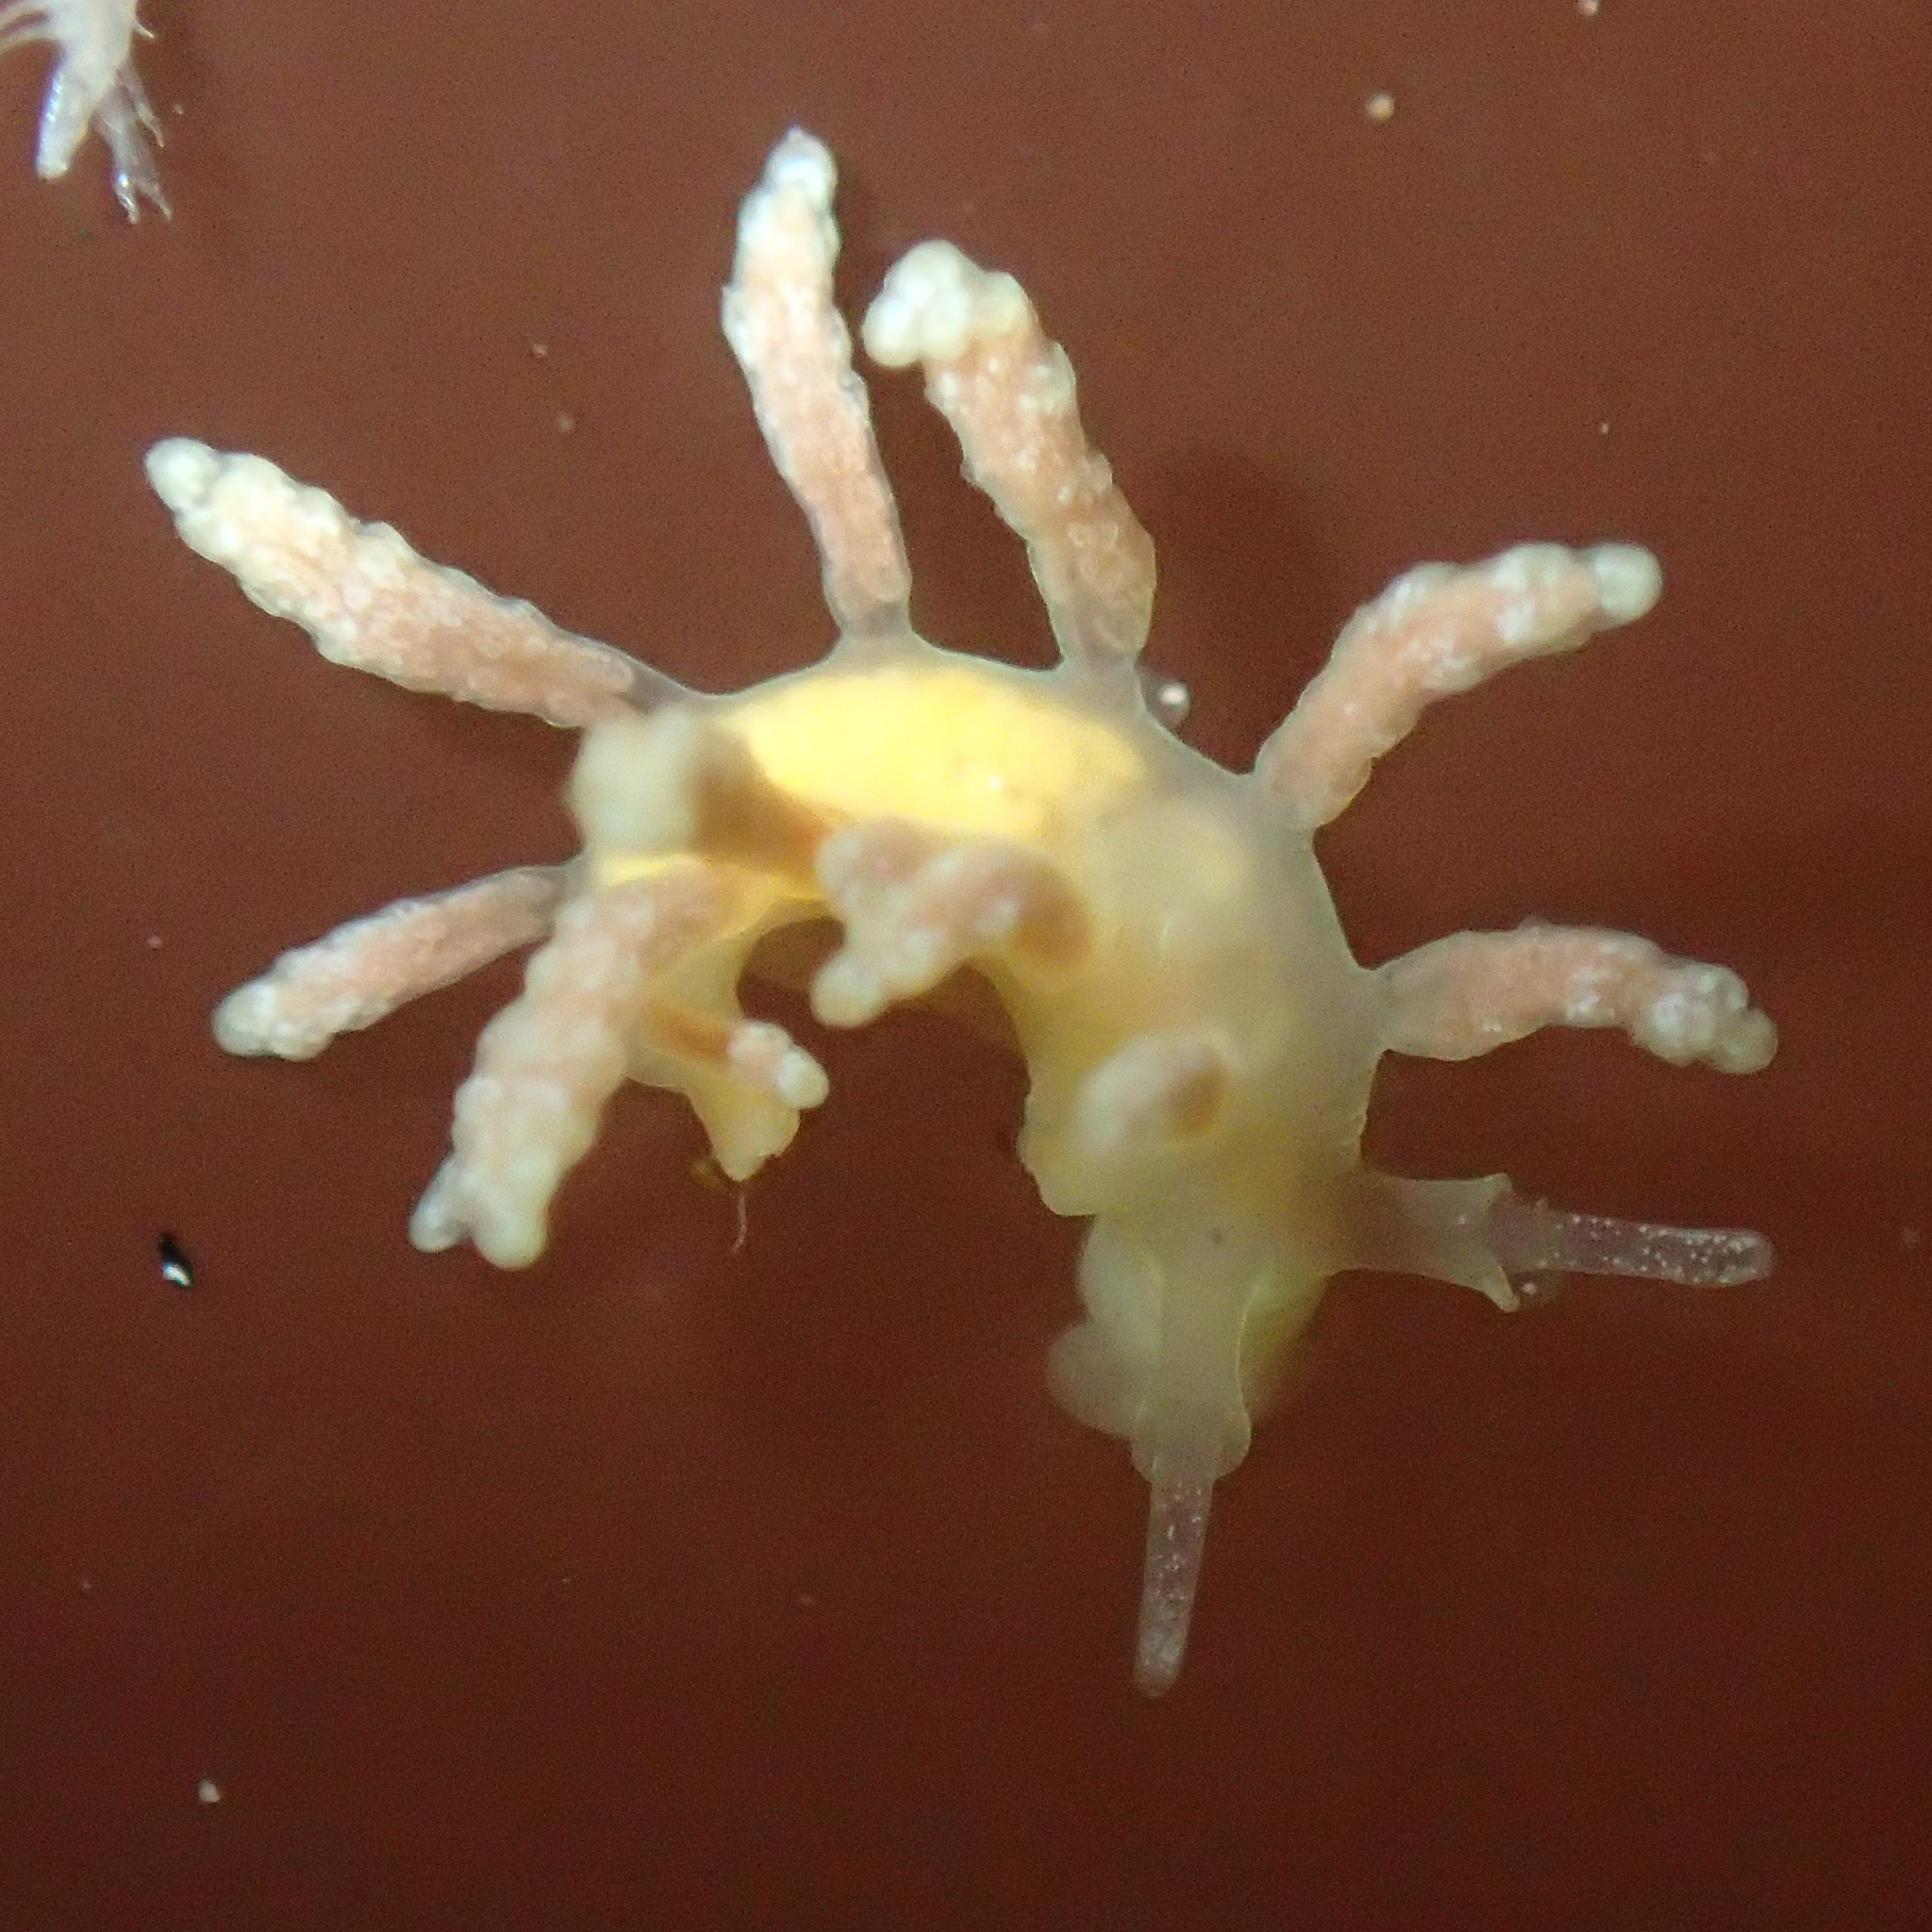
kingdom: Animalia
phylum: Mollusca
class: Gastropoda
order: Nudibranchia
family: Dotidae
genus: Doto
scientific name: Doto amyra
